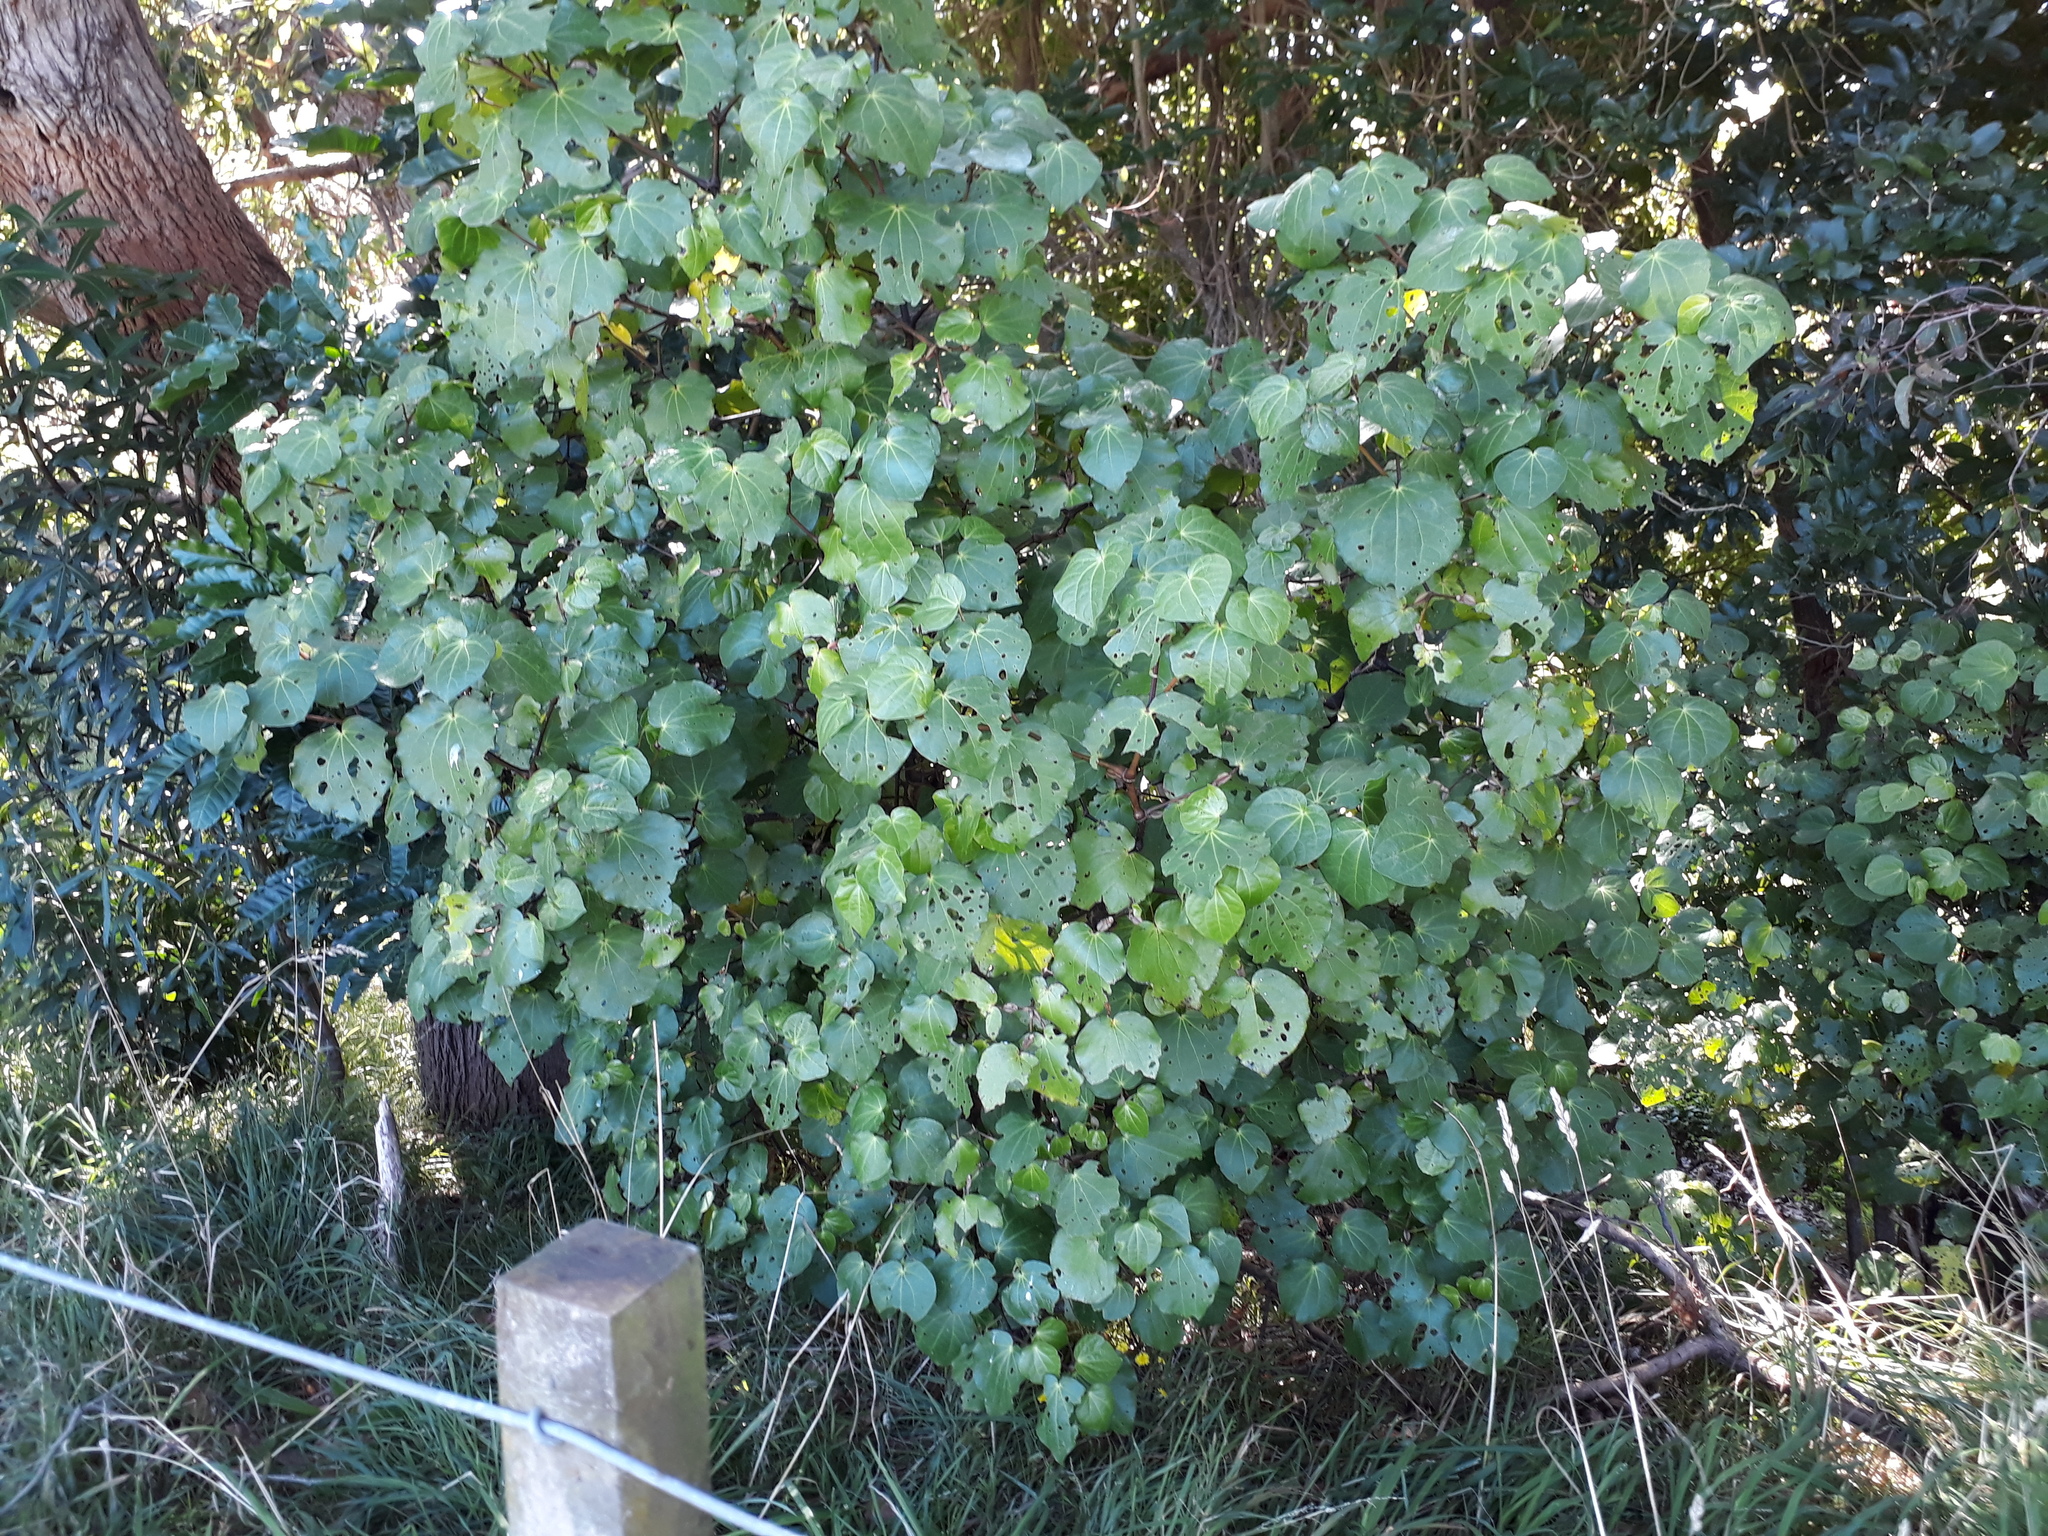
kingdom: Plantae
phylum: Tracheophyta
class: Magnoliopsida
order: Piperales
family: Piperaceae
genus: Macropiper
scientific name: Macropiper excelsum
